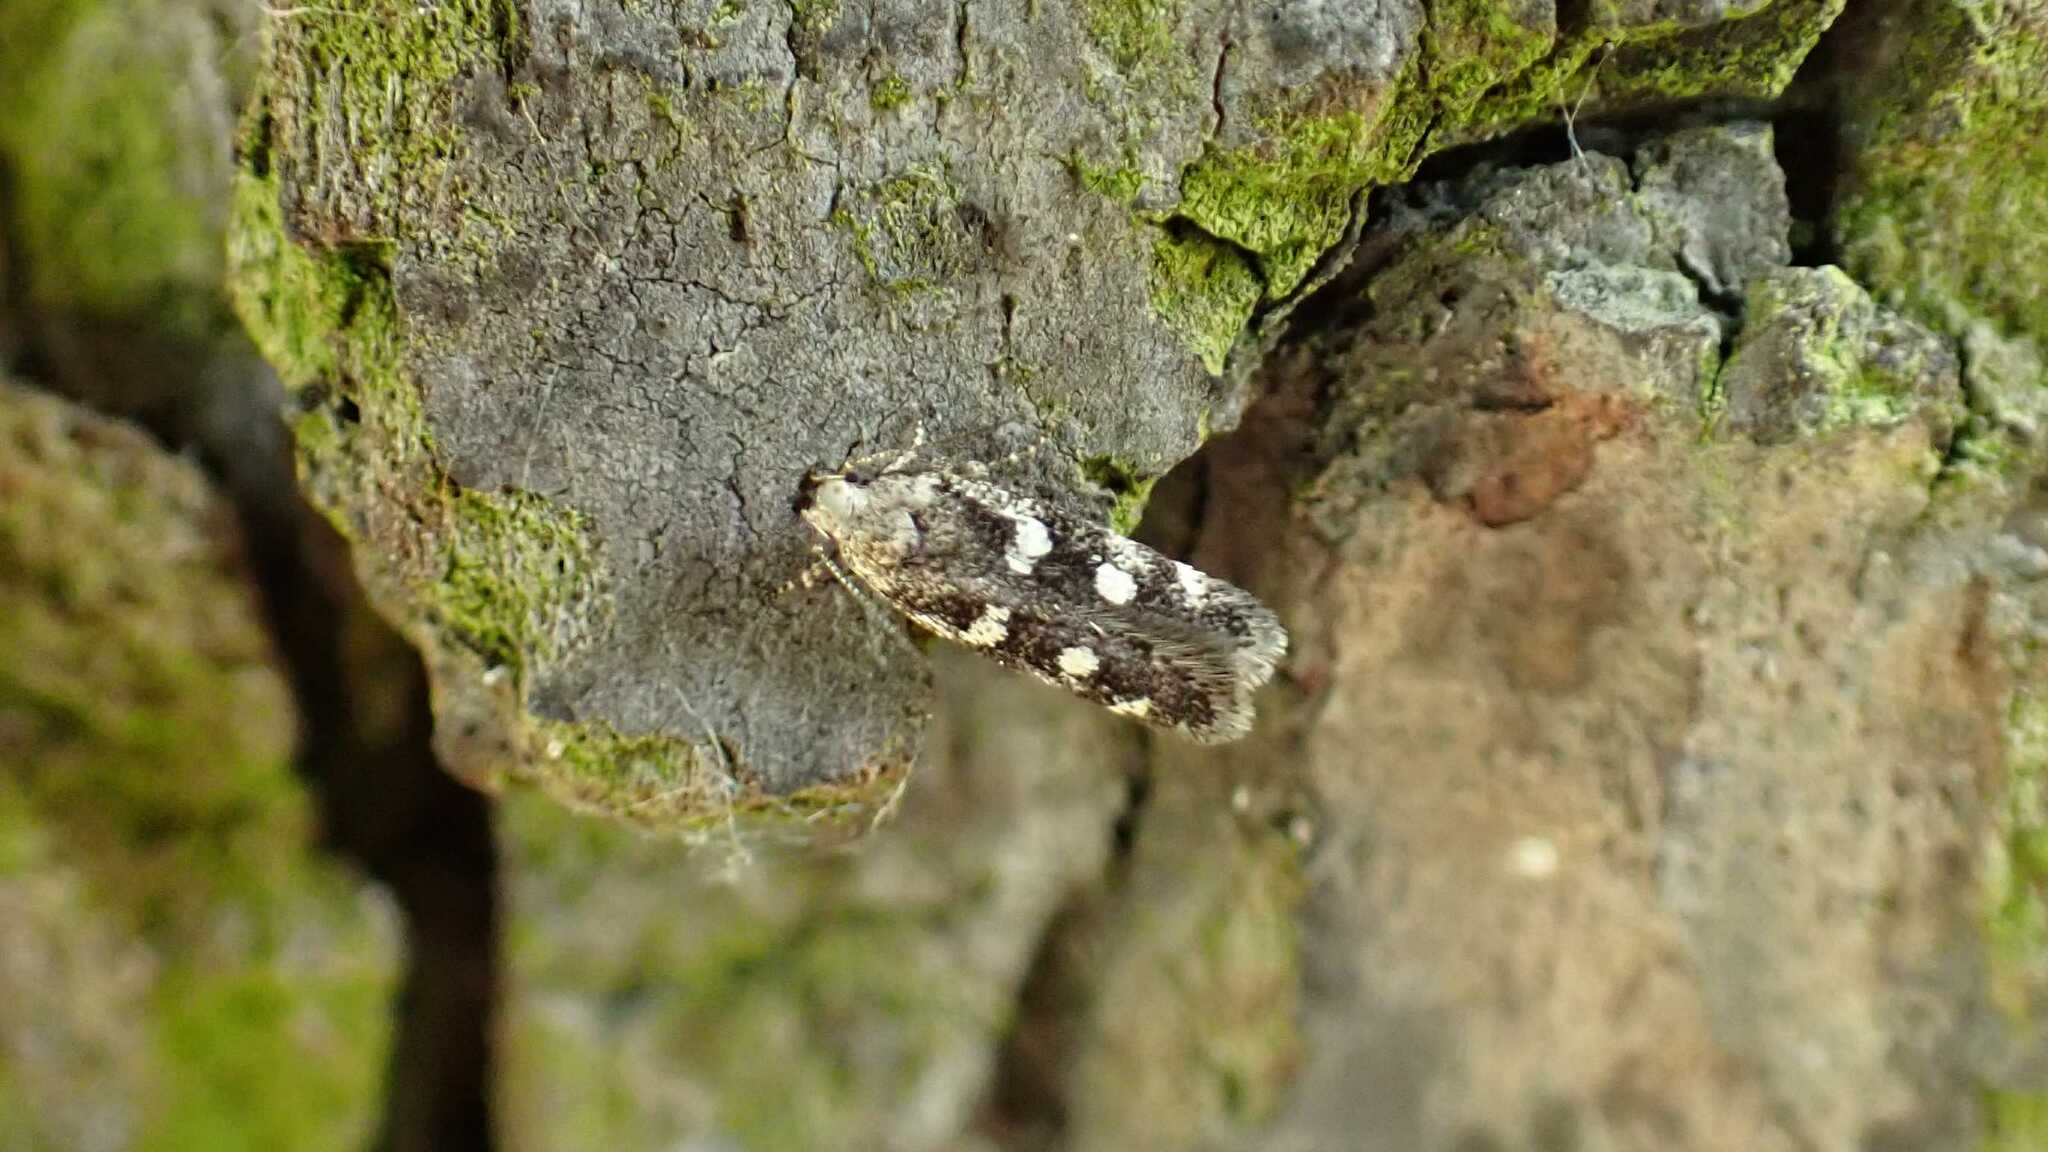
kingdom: Animalia
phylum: Arthropoda
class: Insecta
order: Lepidoptera
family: Gelechiidae
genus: Gelechia
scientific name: Gelechia sestertiella
